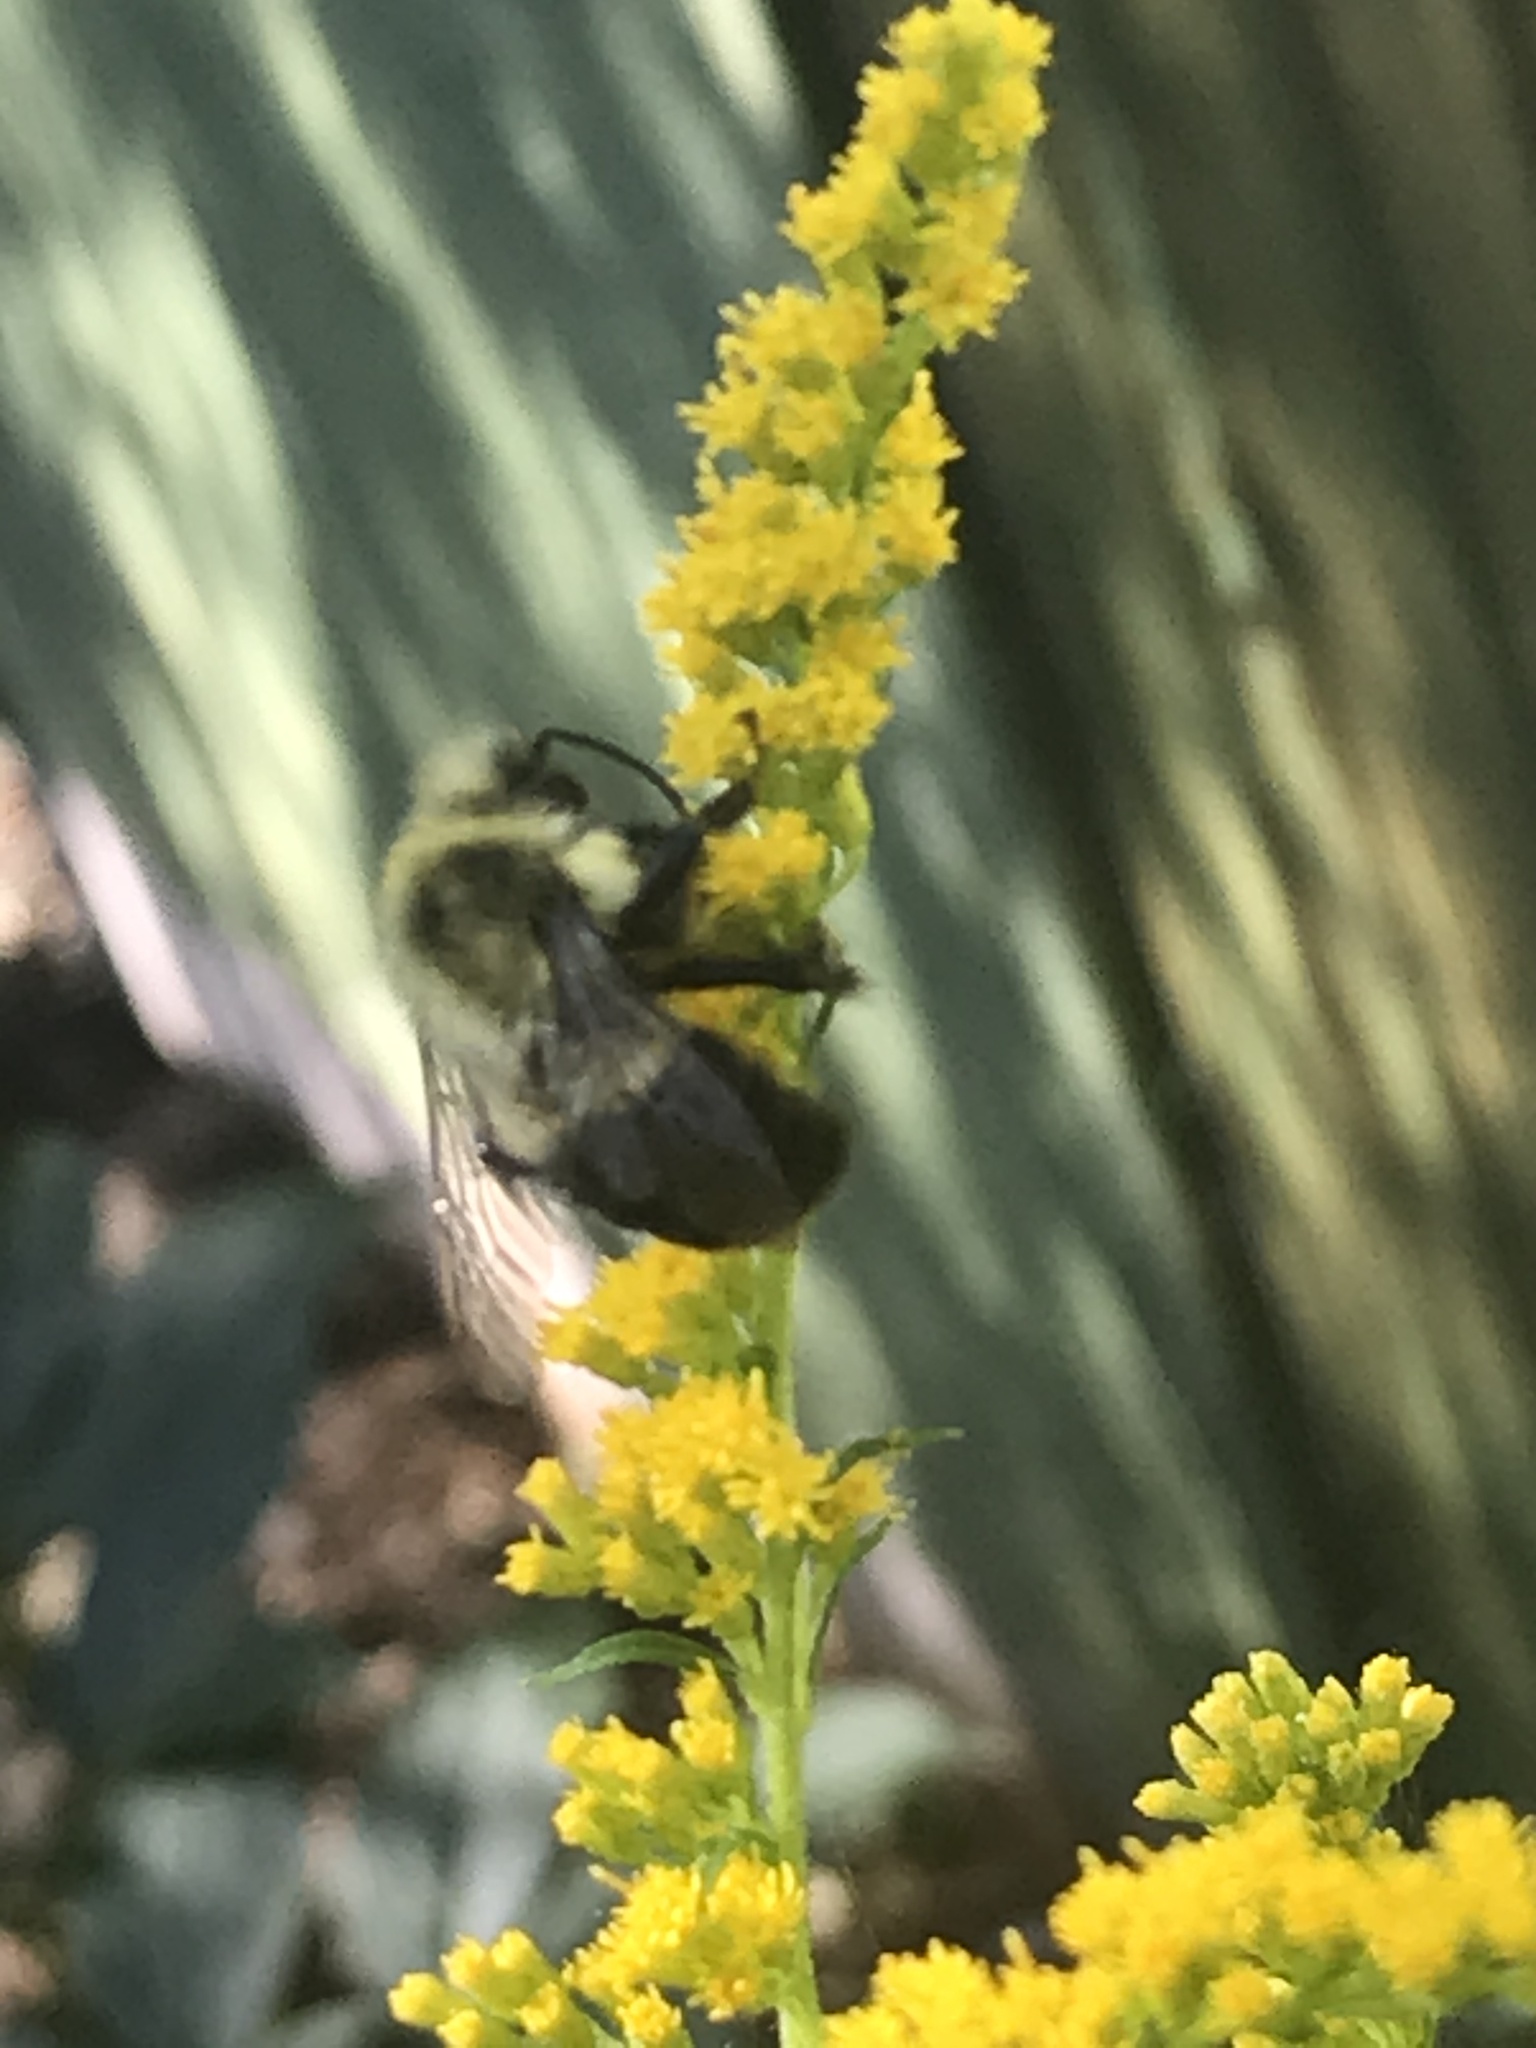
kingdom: Animalia
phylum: Arthropoda
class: Insecta
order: Hymenoptera
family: Apidae
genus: Bombus
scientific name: Bombus impatiens
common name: Common eastern bumble bee
